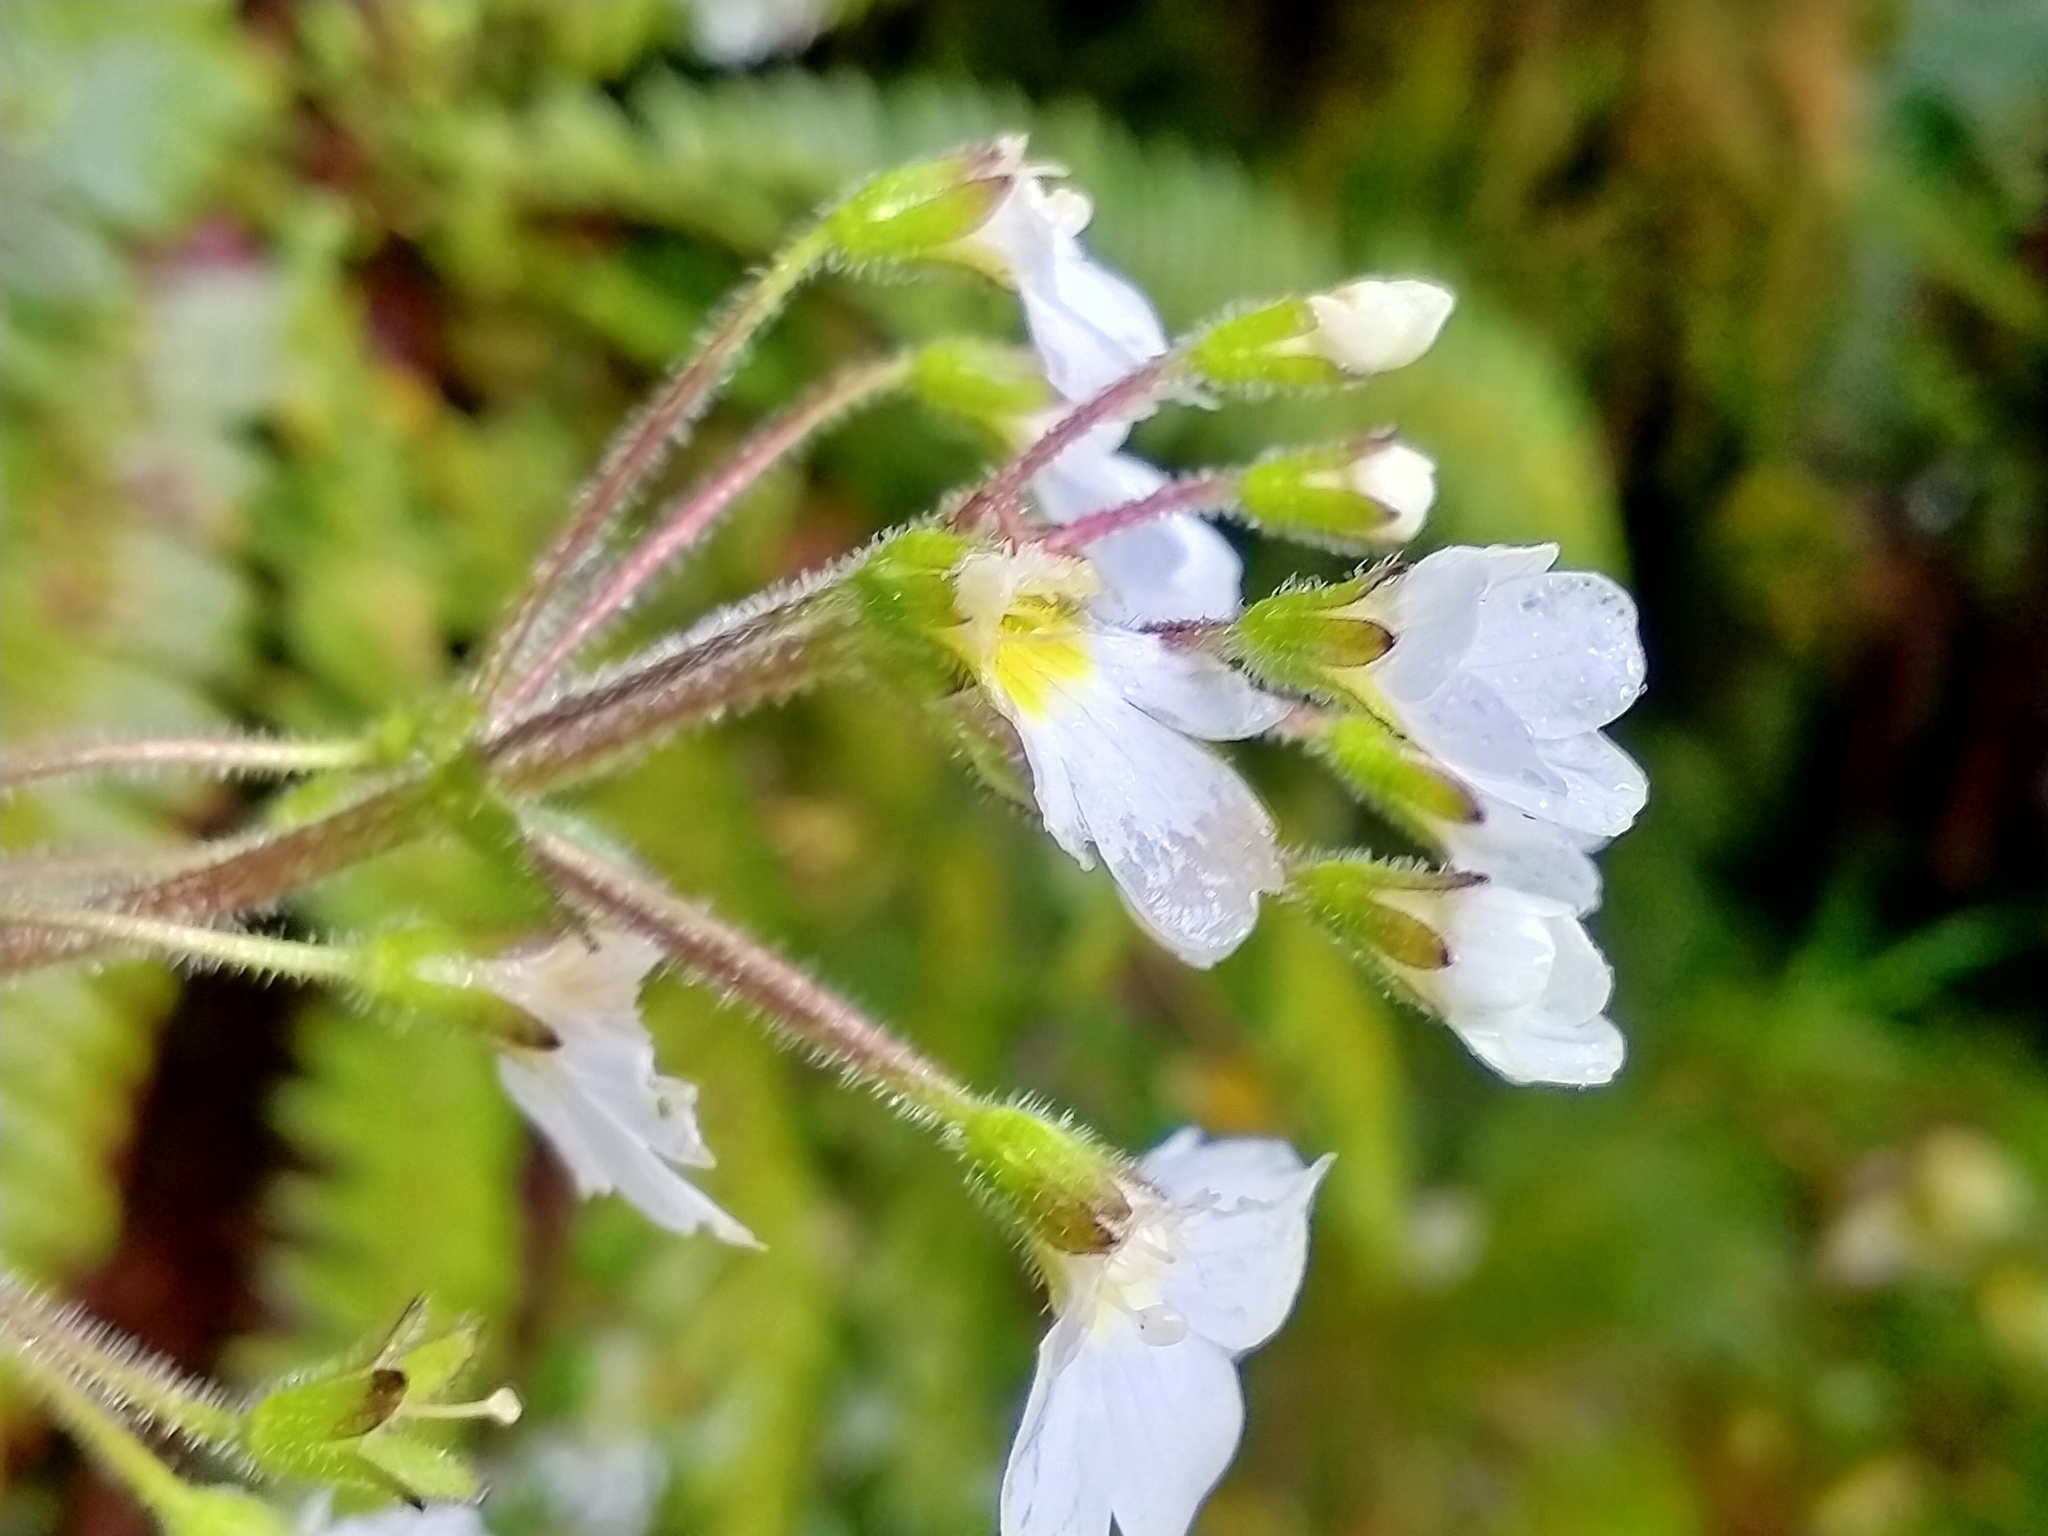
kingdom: Plantae
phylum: Tracheophyta
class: Magnoliopsida
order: Lamiales
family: Plantaginaceae
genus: Ourisia
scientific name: Ourisia crosbyi
